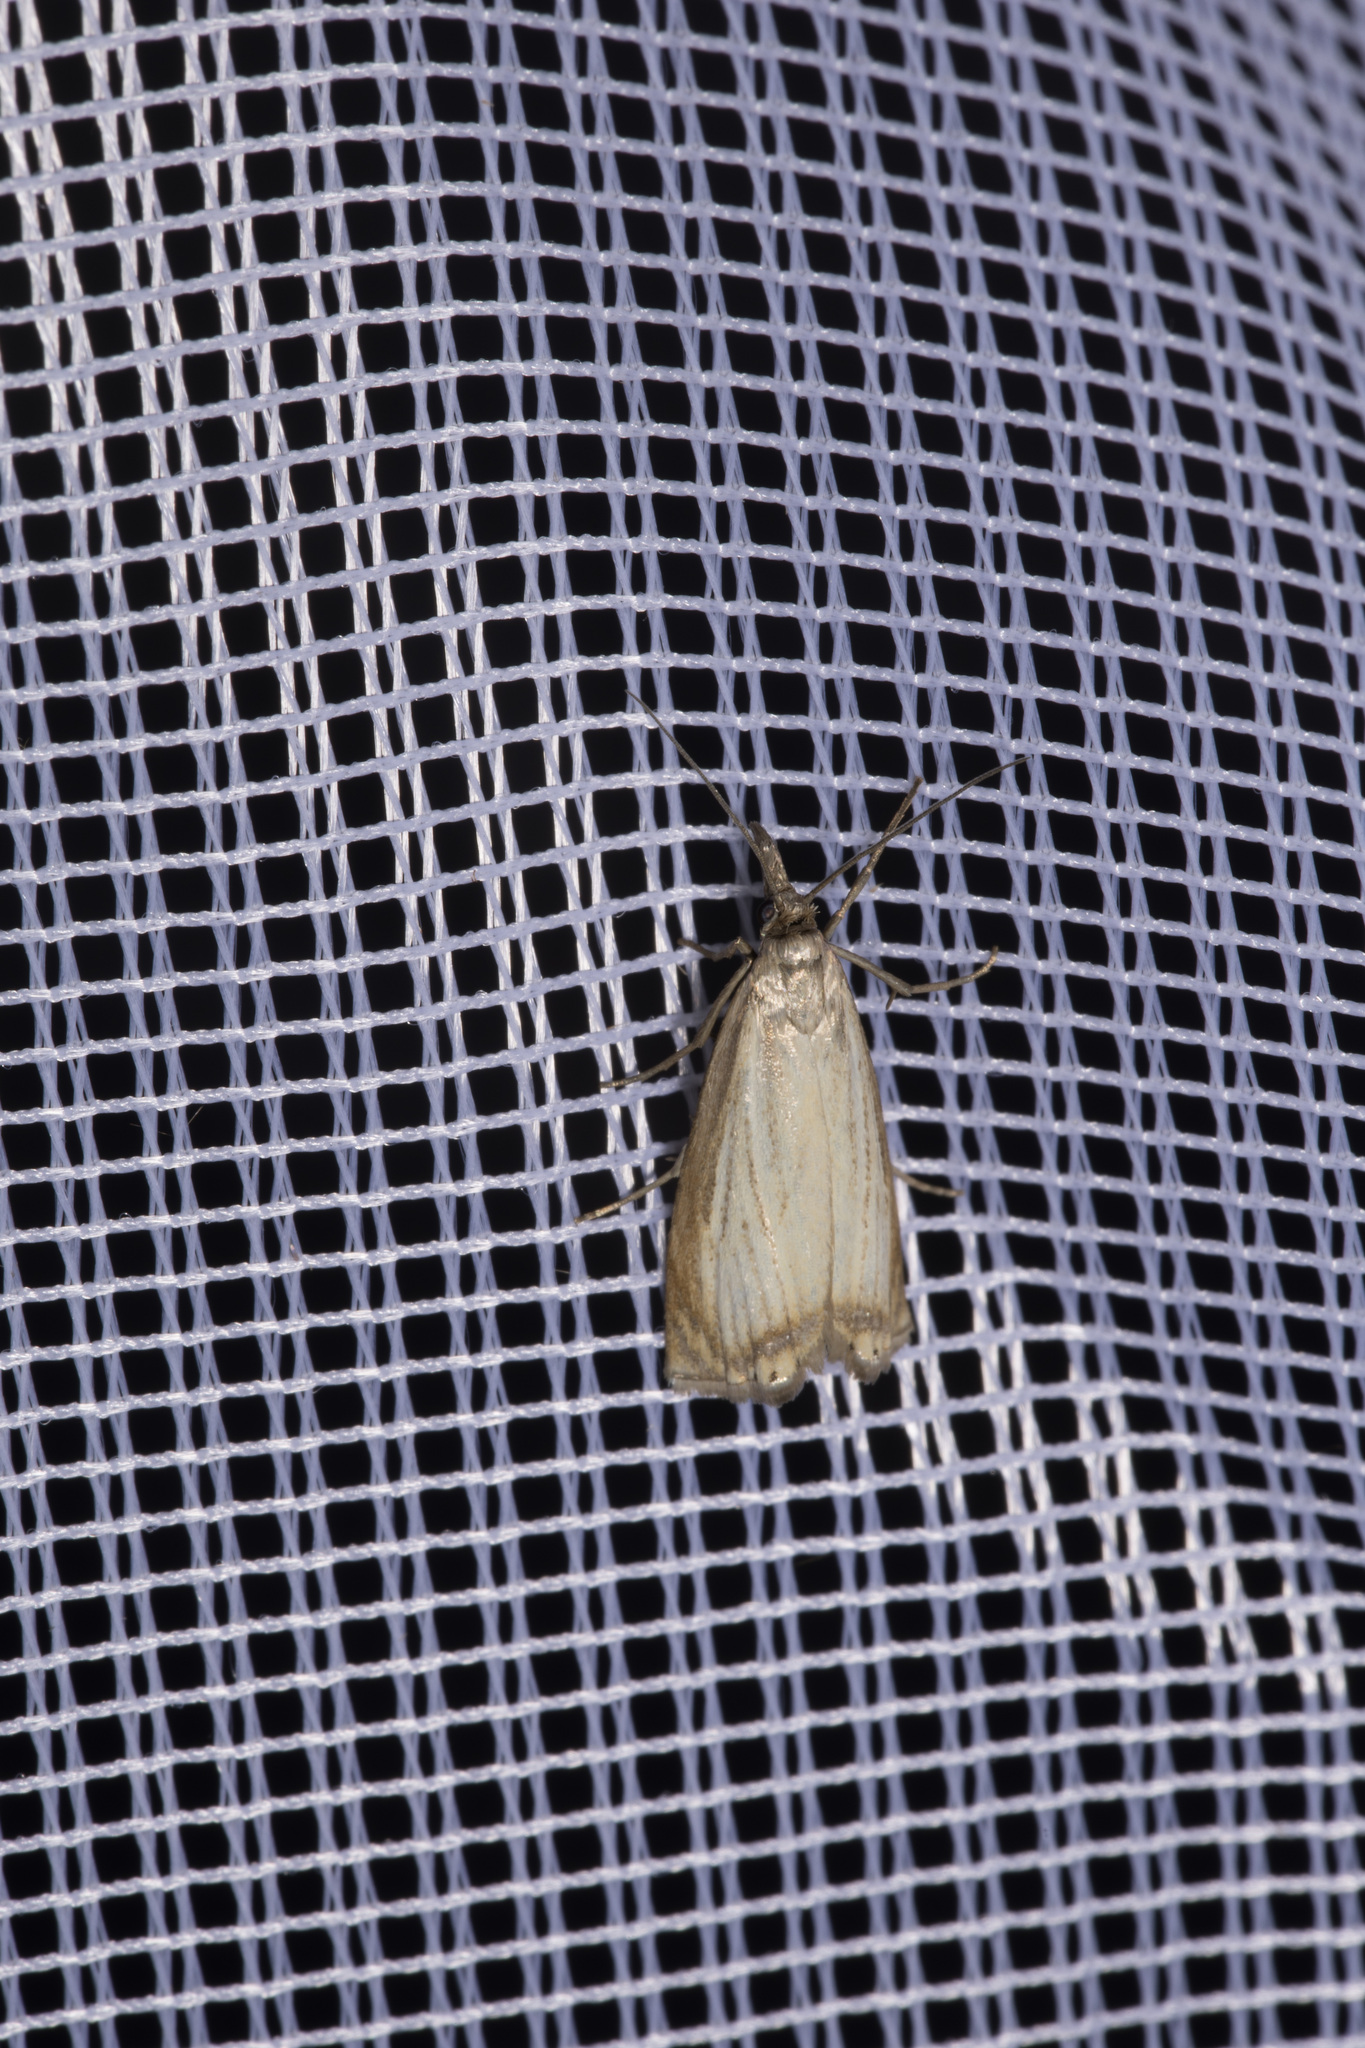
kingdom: Animalia
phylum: Arthropoda
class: Insecta
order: Lepidoptera
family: Crambidae
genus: Chrysoteuchia
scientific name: Chrysoteuchia culmella
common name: Garden grass-veneer
